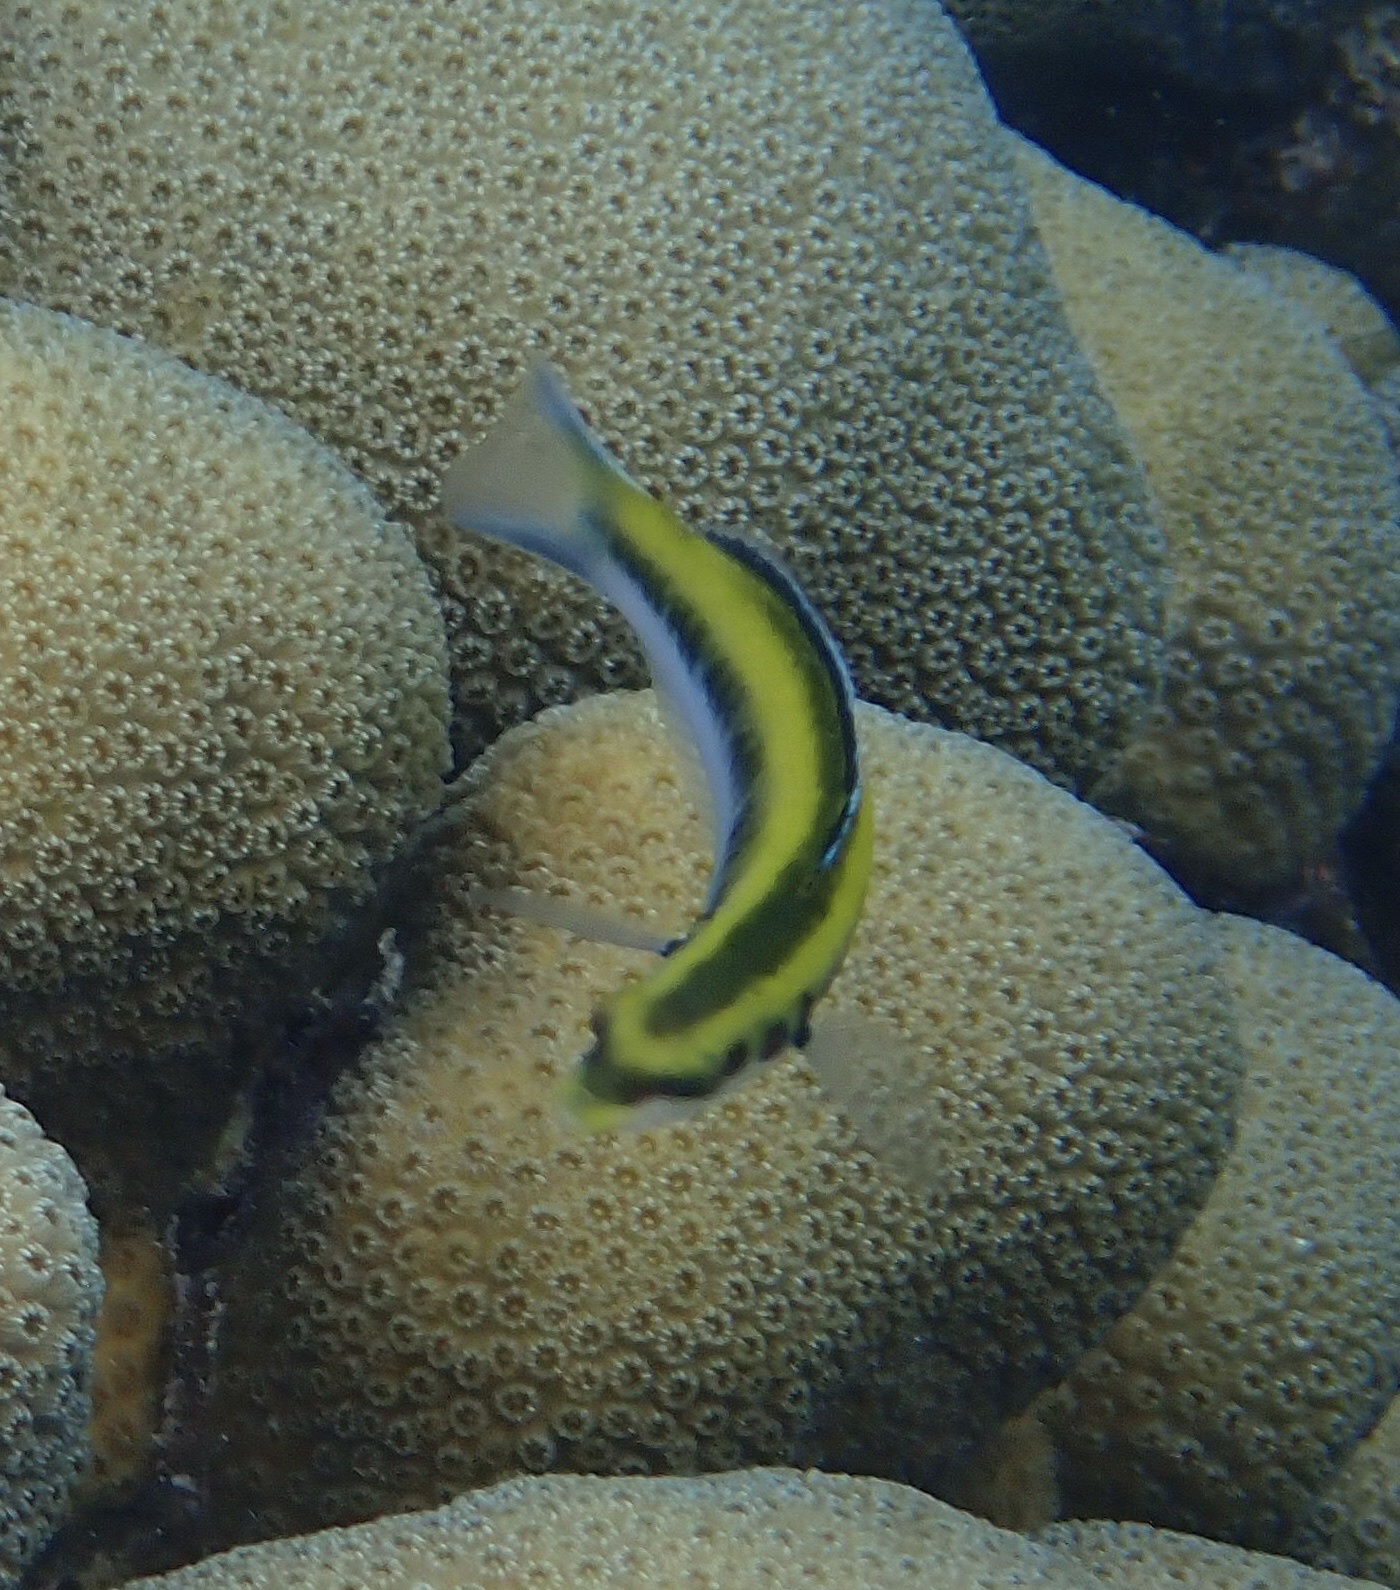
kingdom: Animalia
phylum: Chordata
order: Perciformes
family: Labridae
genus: Thalassoma
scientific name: Thalassoma bifasciatum
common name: Bluehead wrasse
